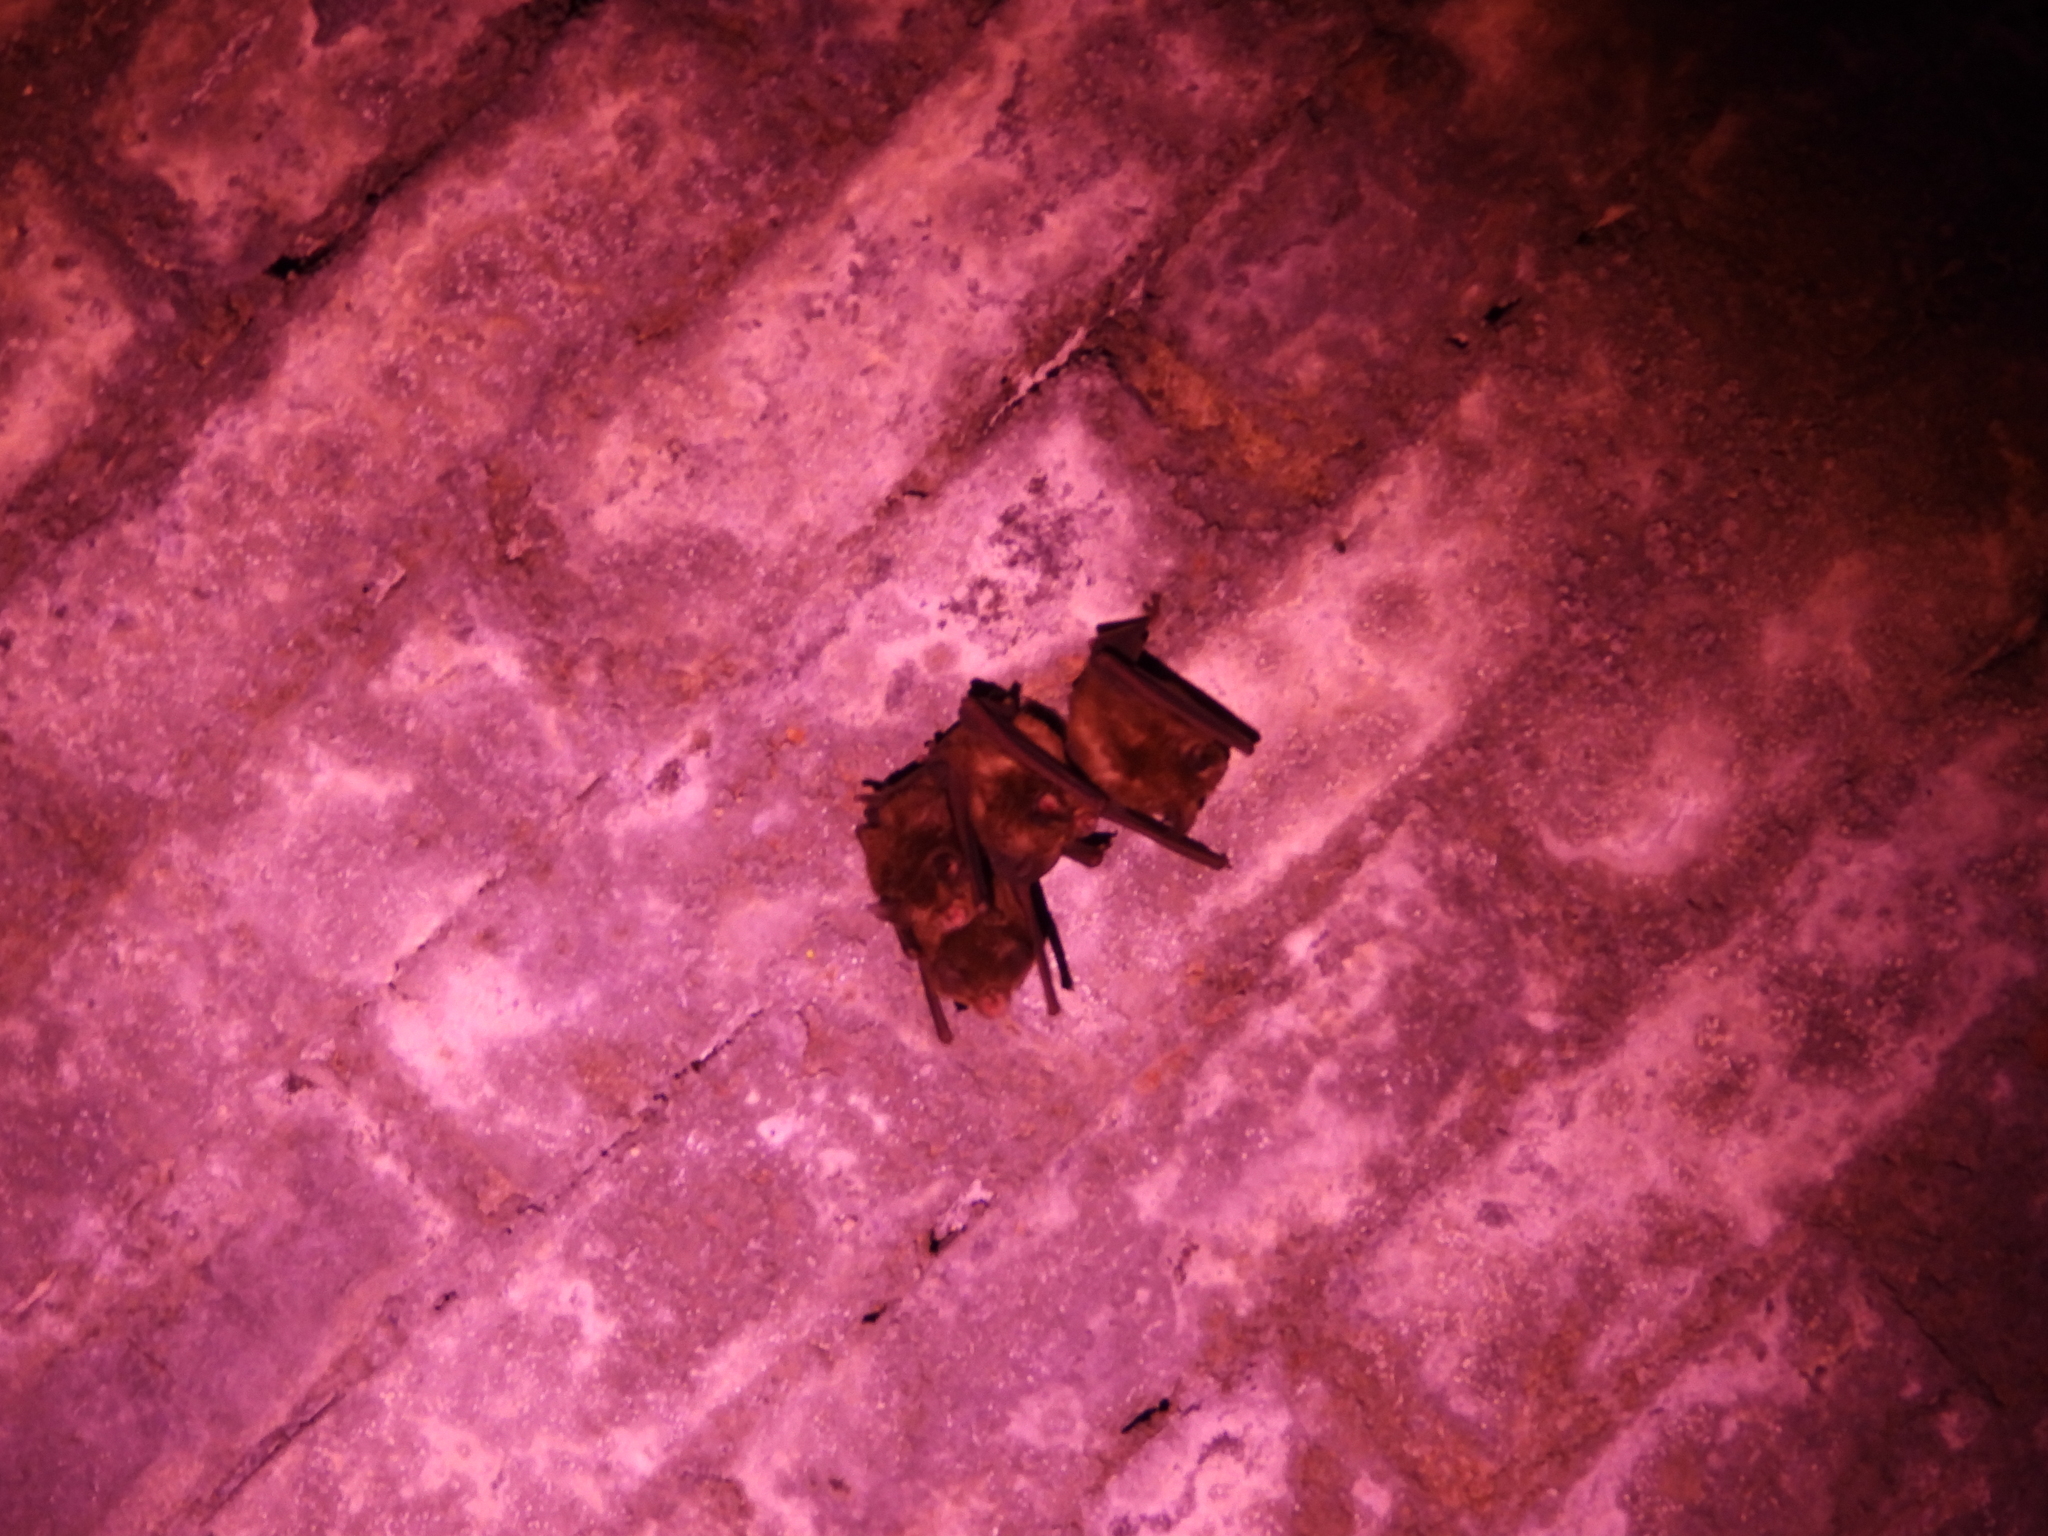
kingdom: Animalia
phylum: Chordata
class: Mammalia
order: Chiroptera
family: Rhinolophidae
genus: Rhinolophus
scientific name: Rhinolophus monoceros
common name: Formosan lesser horseshoe bat
